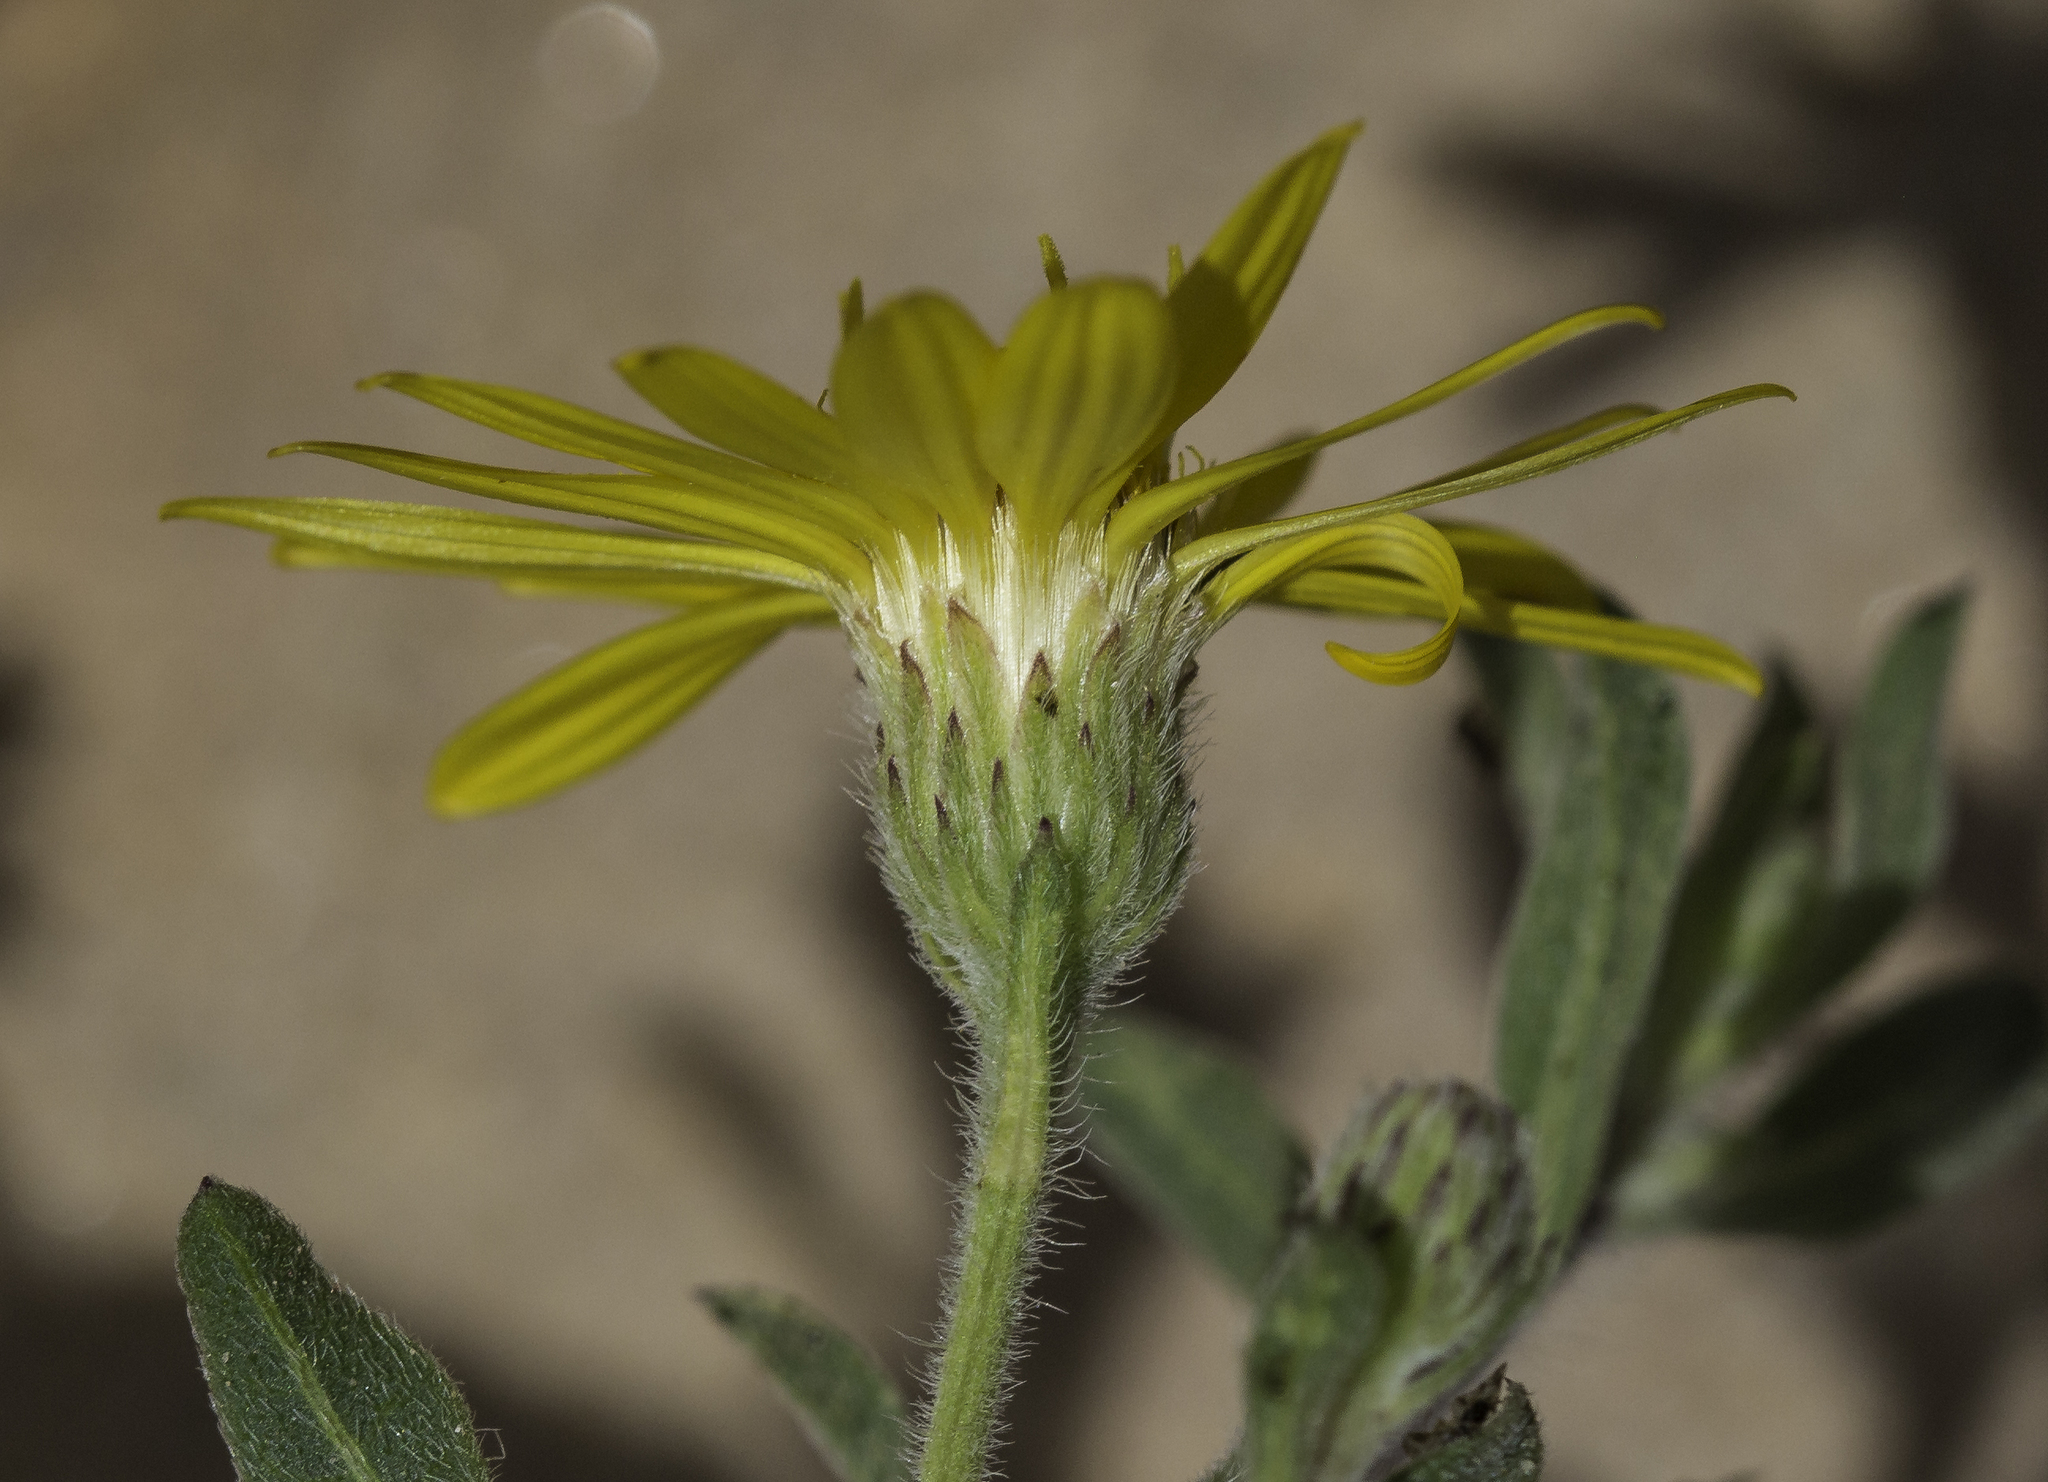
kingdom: Plantae
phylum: Tracheophyta
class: Magnoliopsida
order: Asterales
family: Asteraceae
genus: Heterotheca
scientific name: Heterotheca hirsutissima
